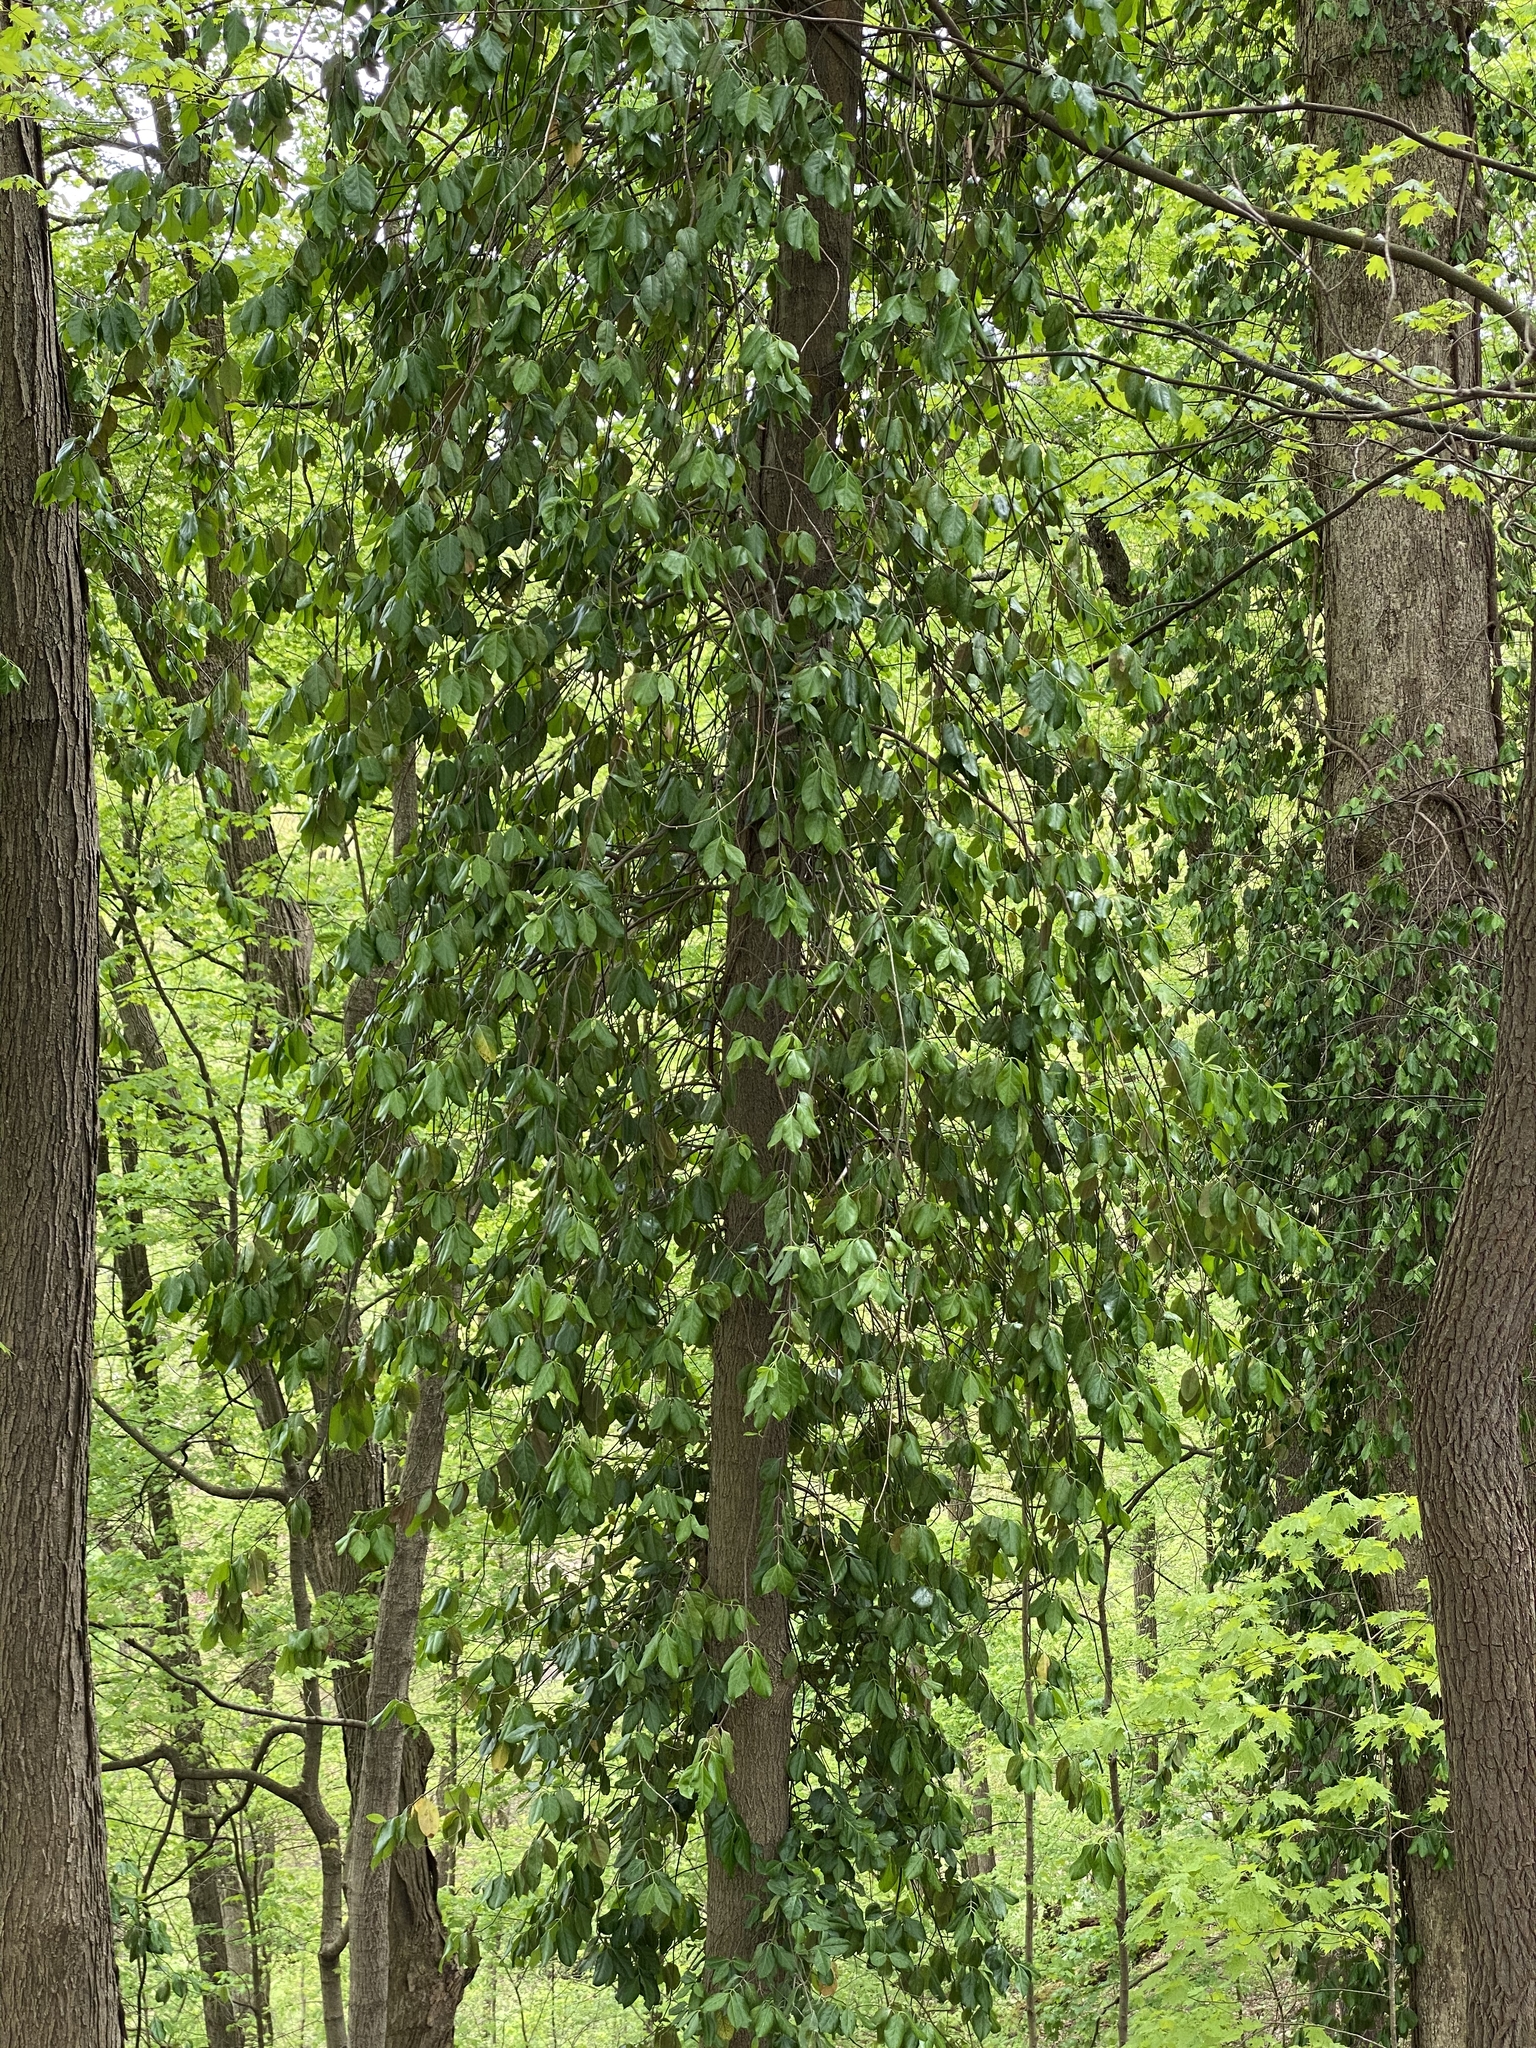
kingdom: Plantae
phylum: Tracheophyta
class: Magnoliopsida
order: Celastrales
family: Celastraceae
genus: Euonymus
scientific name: Euonymus fortunei
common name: Climbing euonymus
